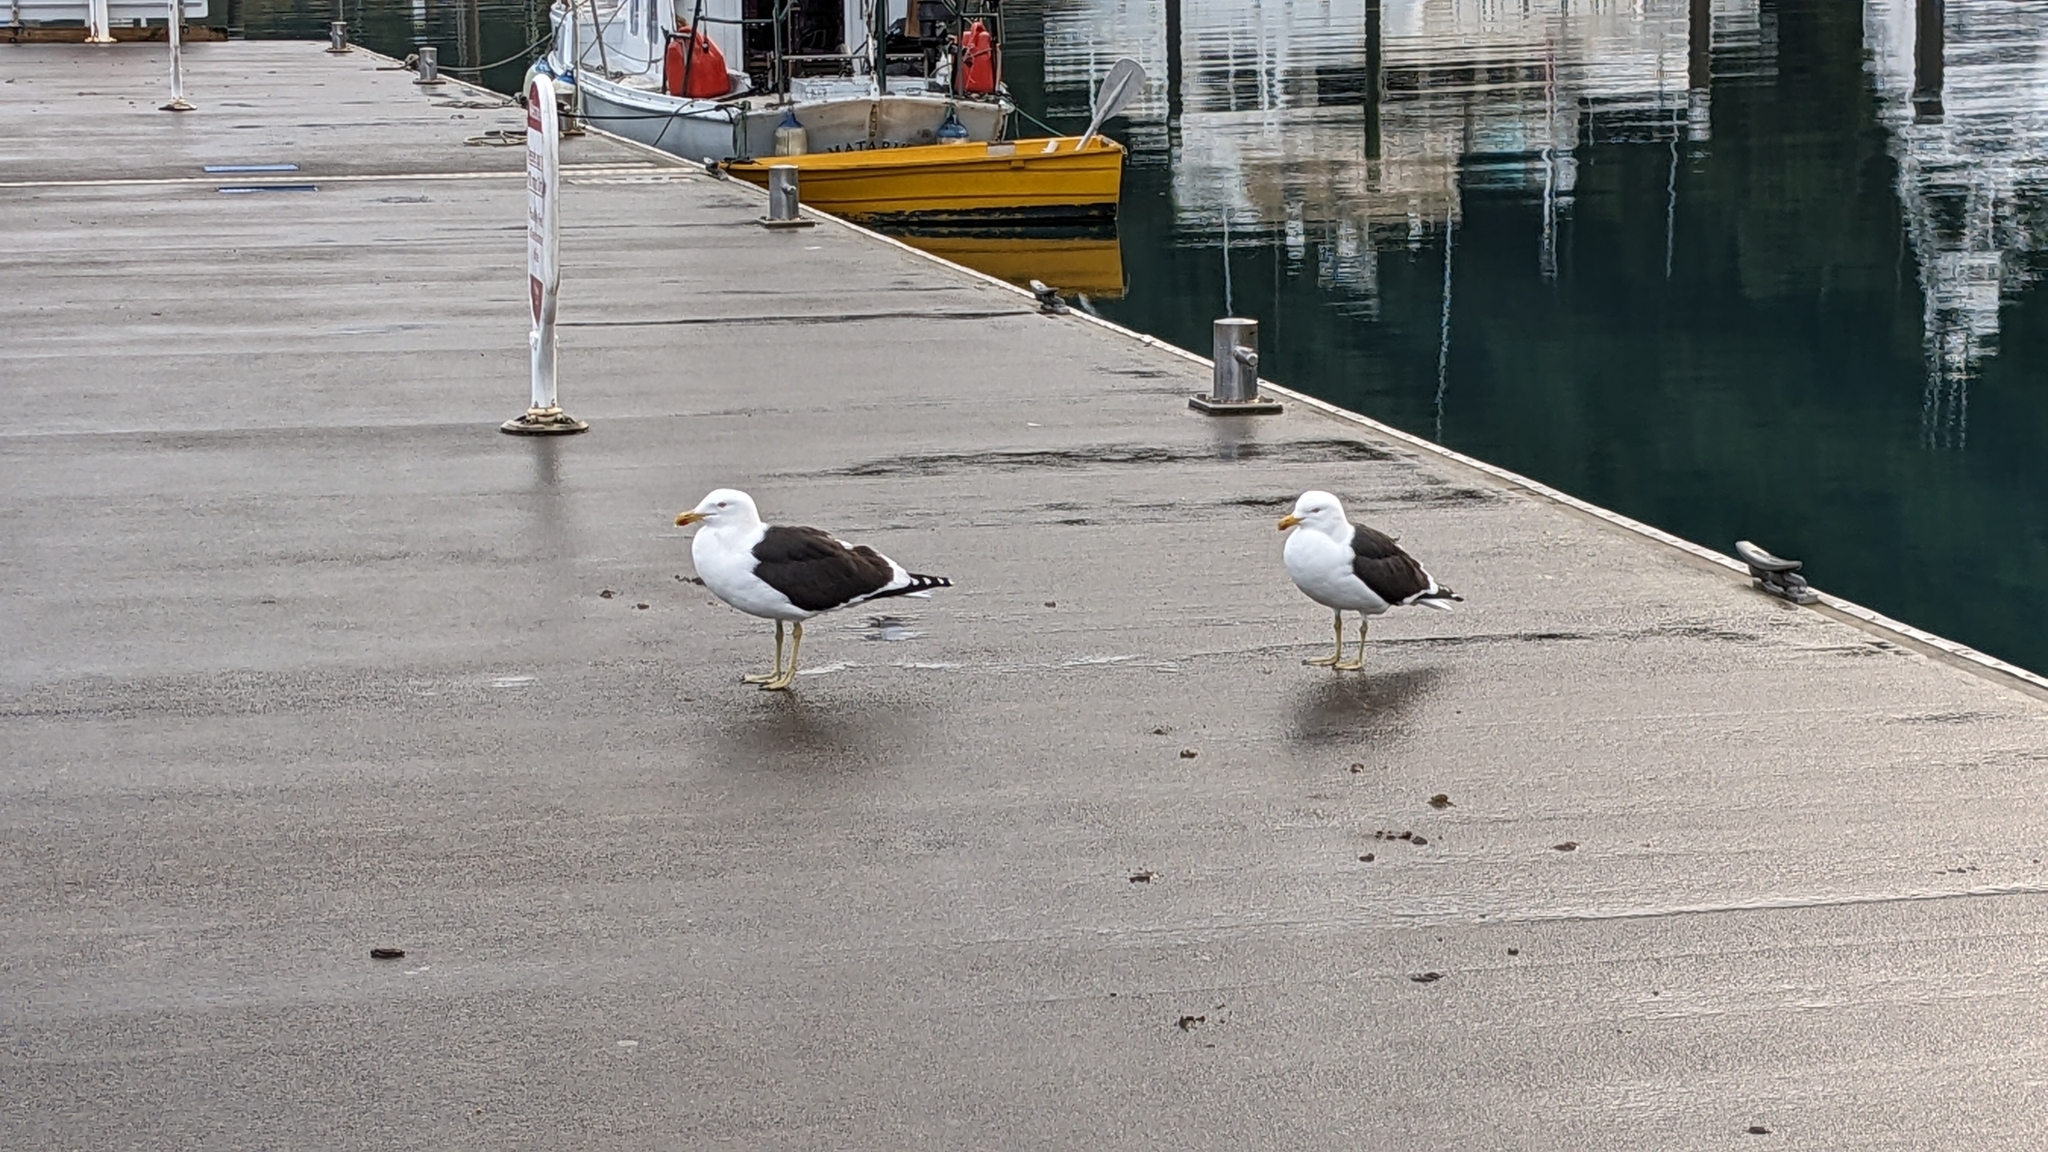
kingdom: Animalia
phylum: Chordata
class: Aves
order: Charadriiformes
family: Laridae
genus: Larus
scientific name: Larus dominicanus
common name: Kelp gull
